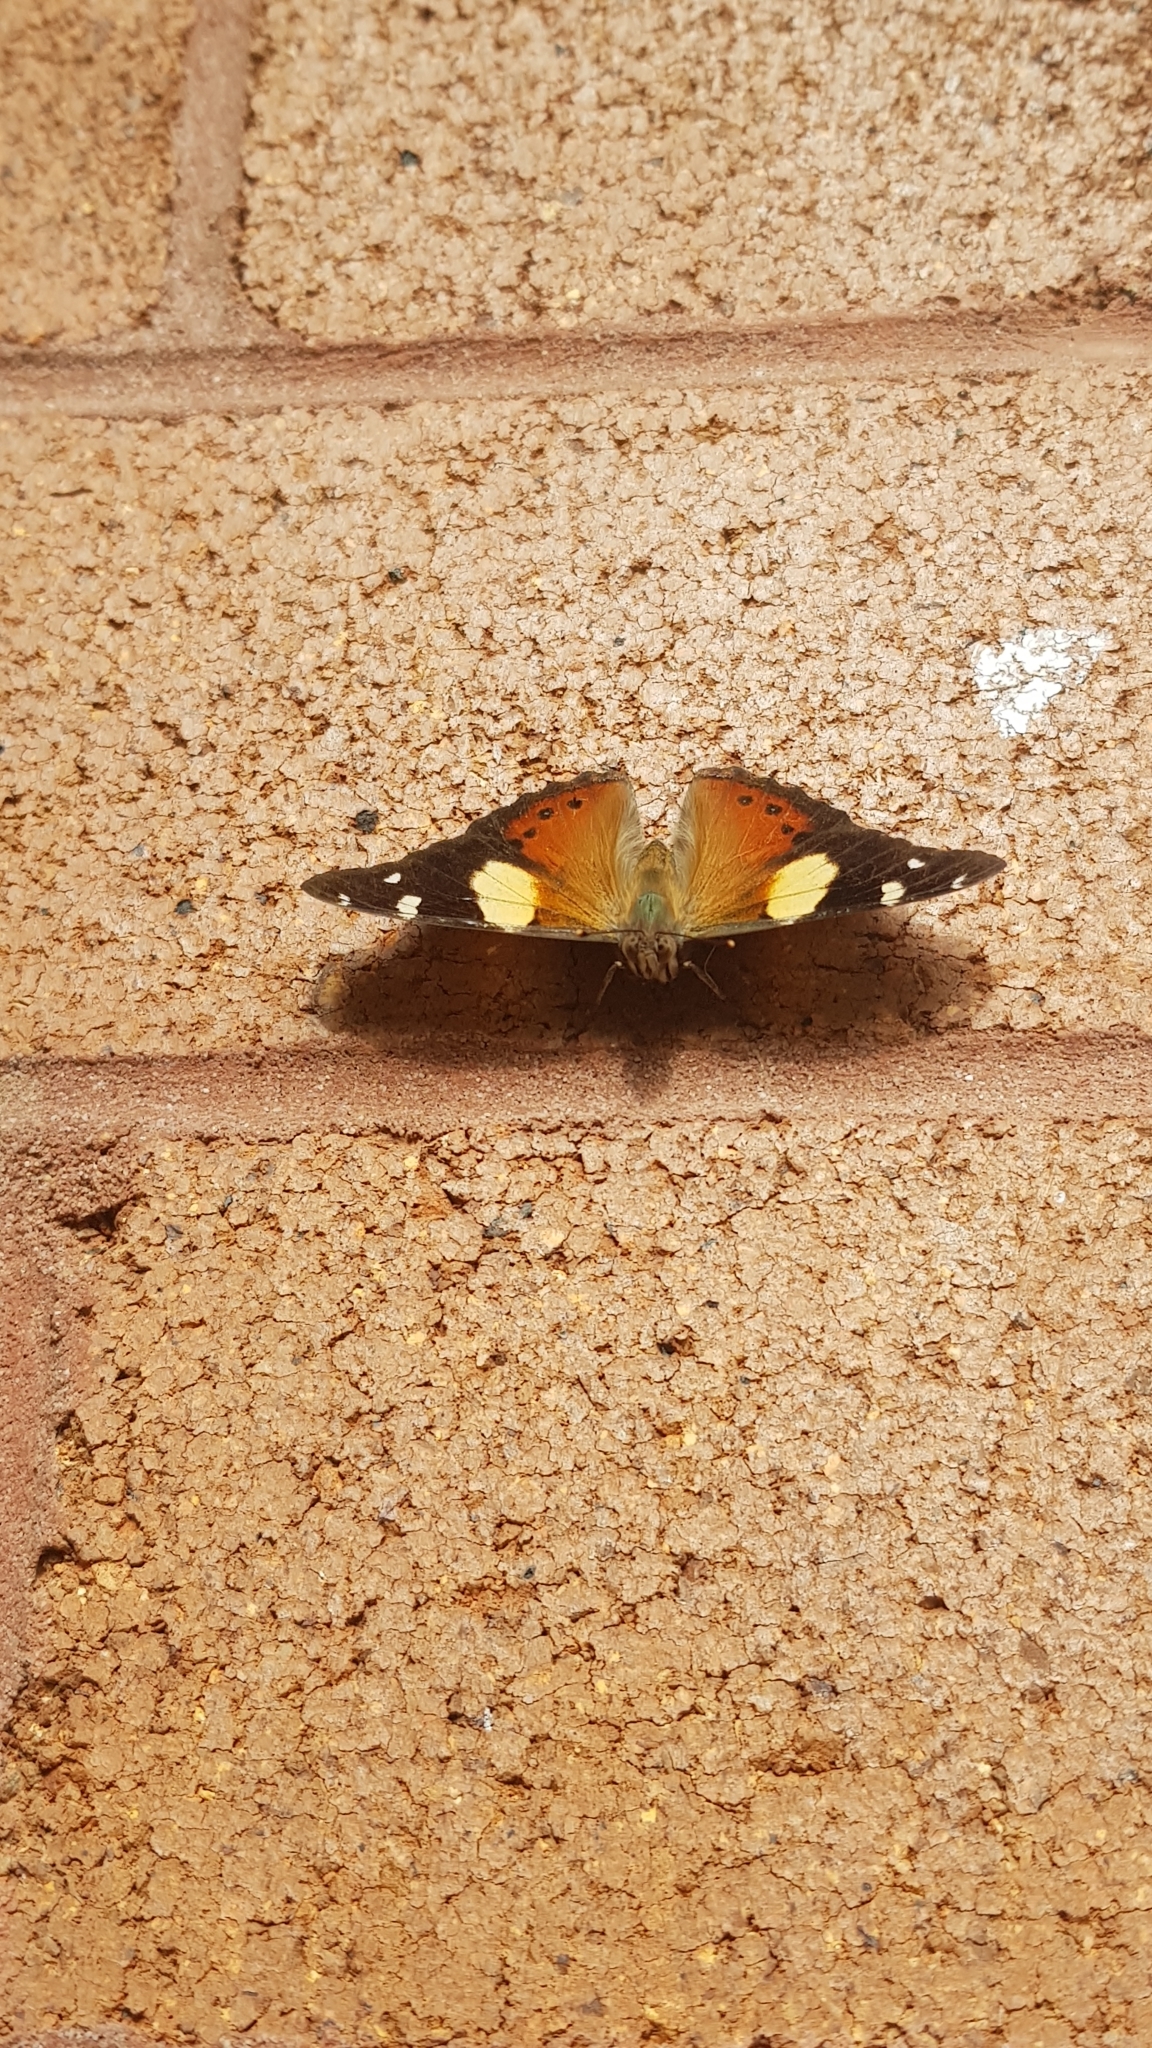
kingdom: Animalia
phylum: Arthropoda
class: Insecta
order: Lepidoptera
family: Nymphalidae
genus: Vanessa
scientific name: Vanessa itea
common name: Yellow admiral
